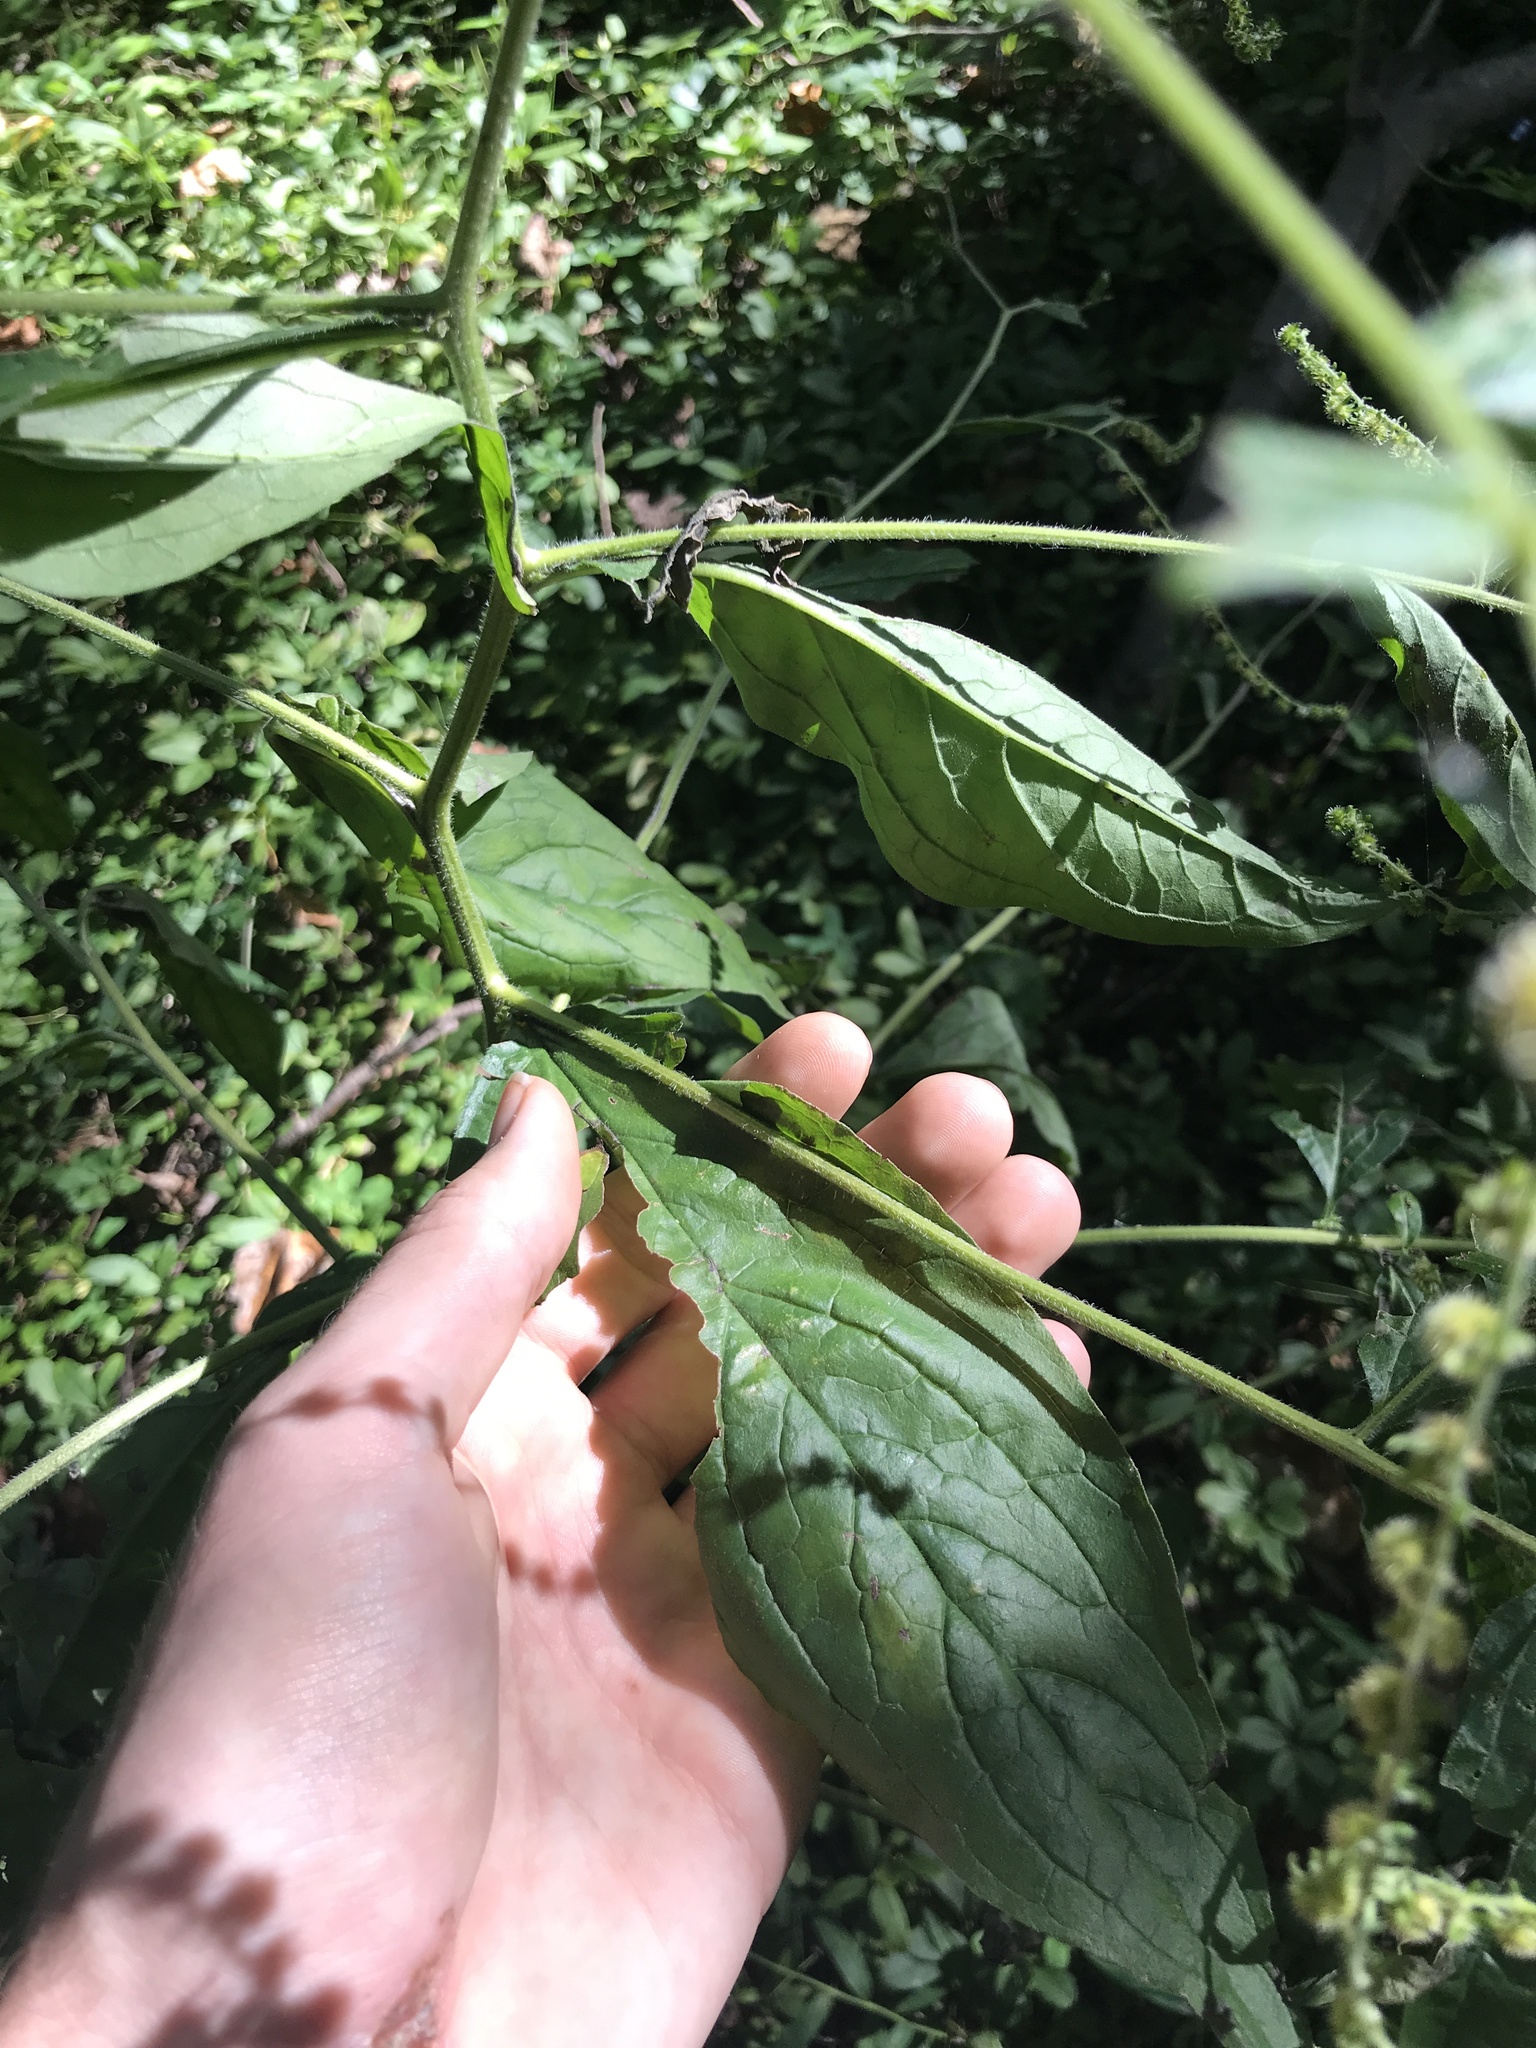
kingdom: Plantae
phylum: Tracheophyta
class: Magnoliopsida
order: Boraginales
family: Boraginaceae
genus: Hackelia
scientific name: Hackelia virginiana
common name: Beggar's-lice
